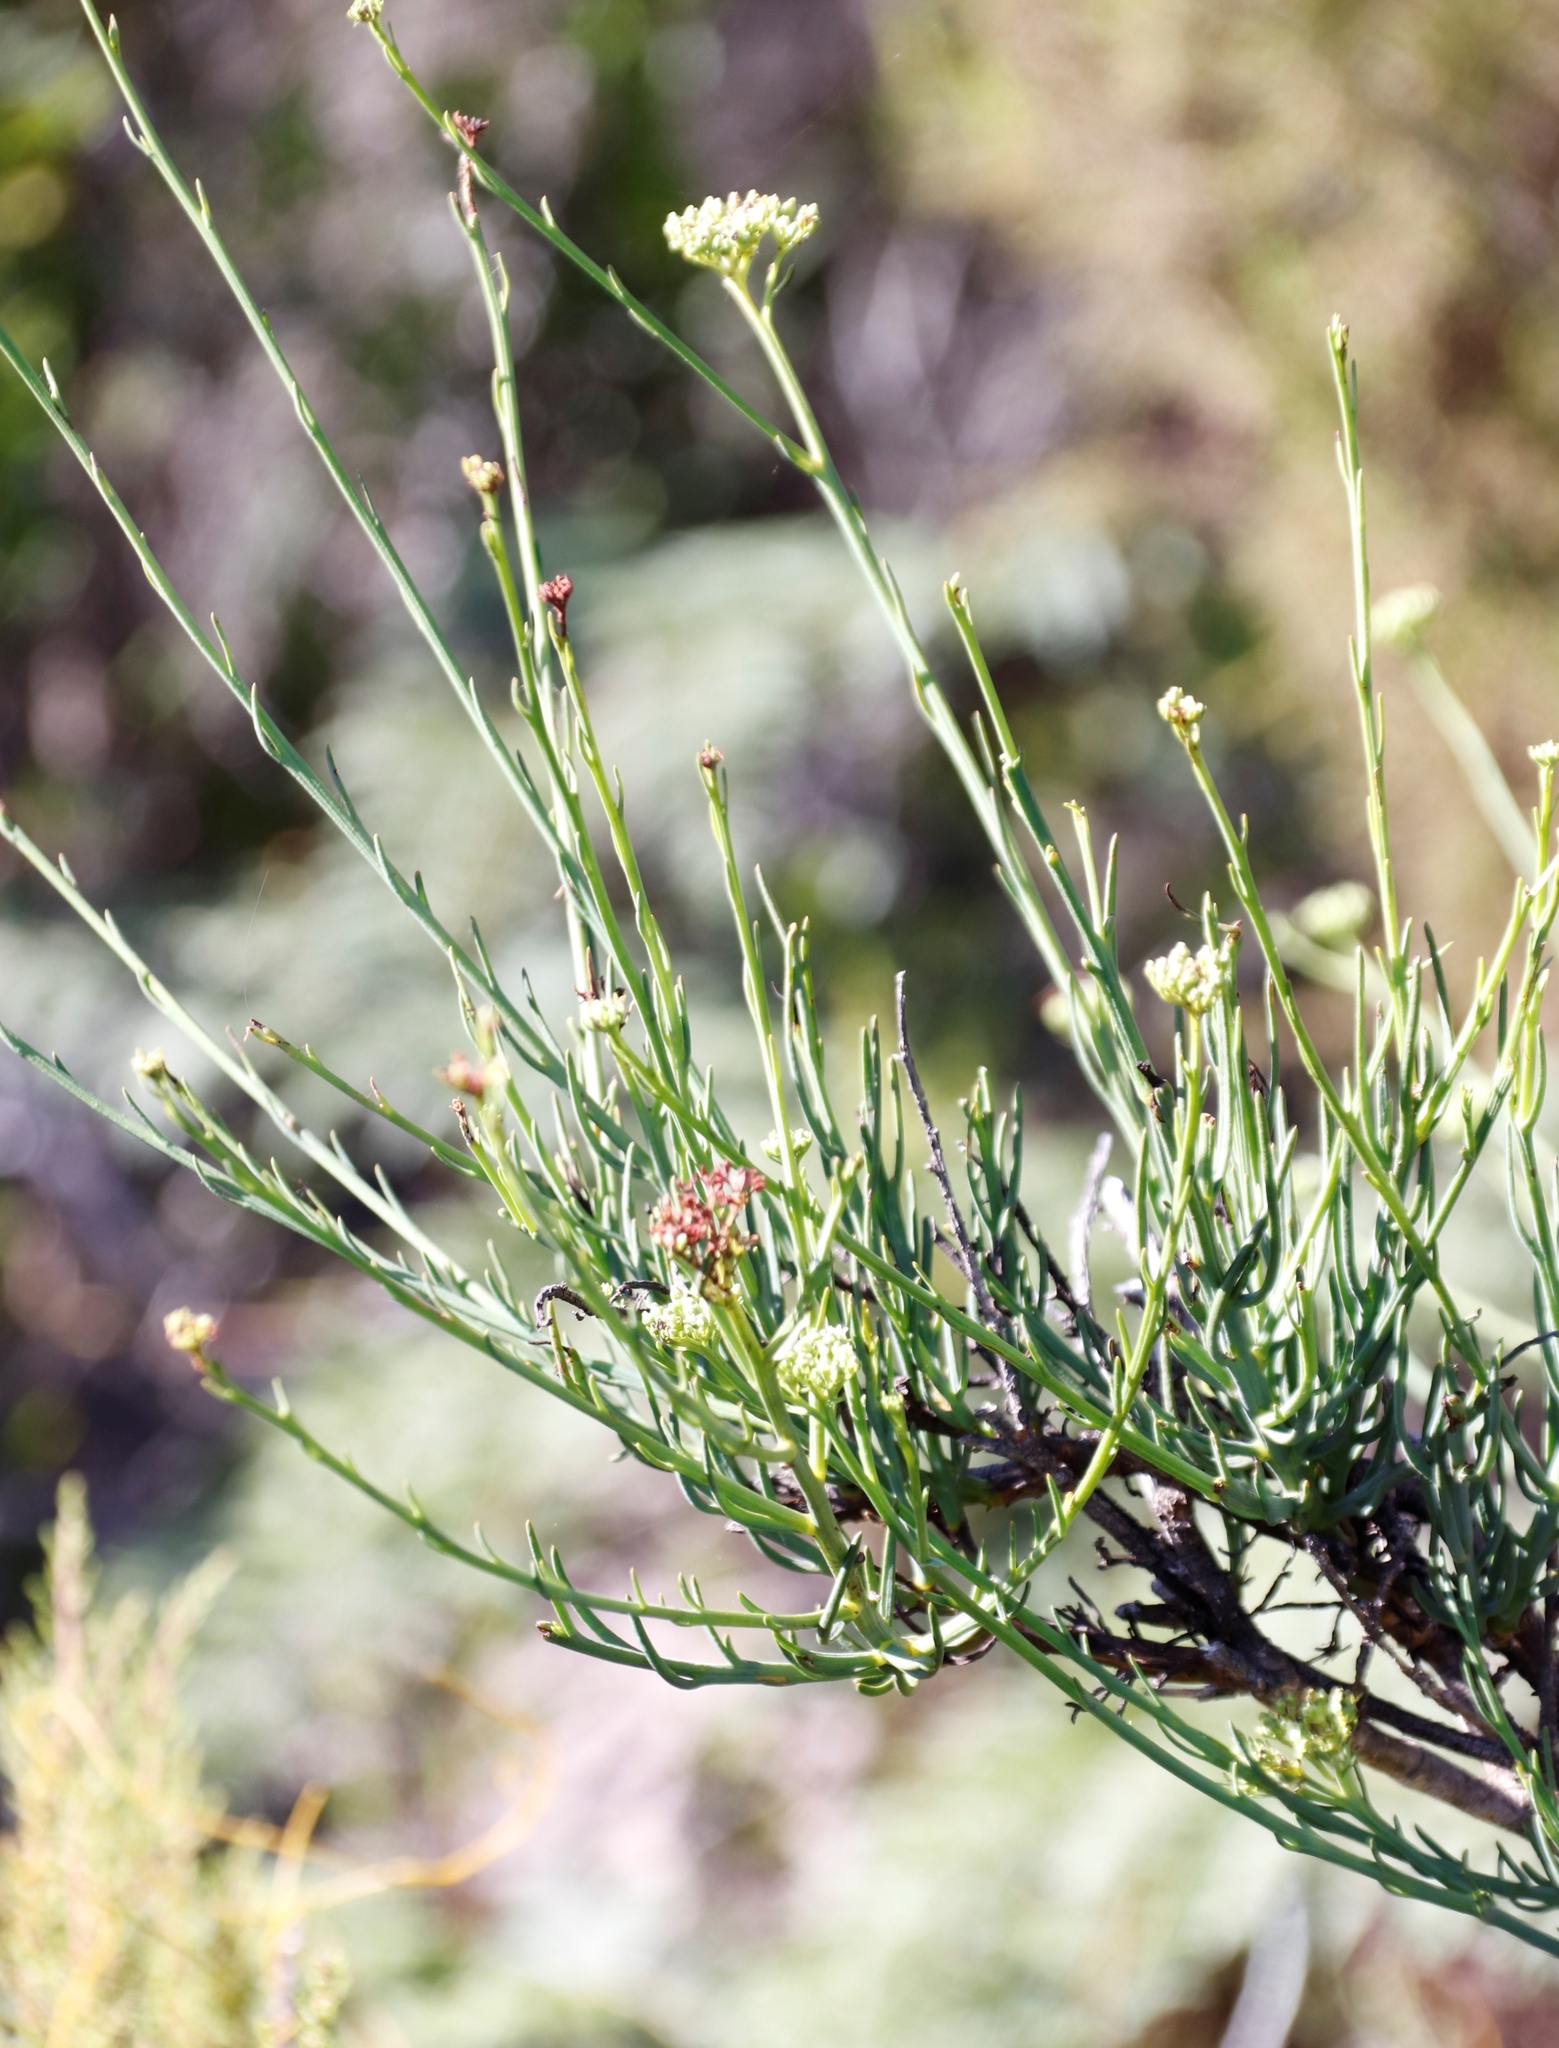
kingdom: Plantae
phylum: Tracheophyta
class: Magnoliopsida
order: Santalales
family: Thesiaceae
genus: Thesium
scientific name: Thesium strictum
